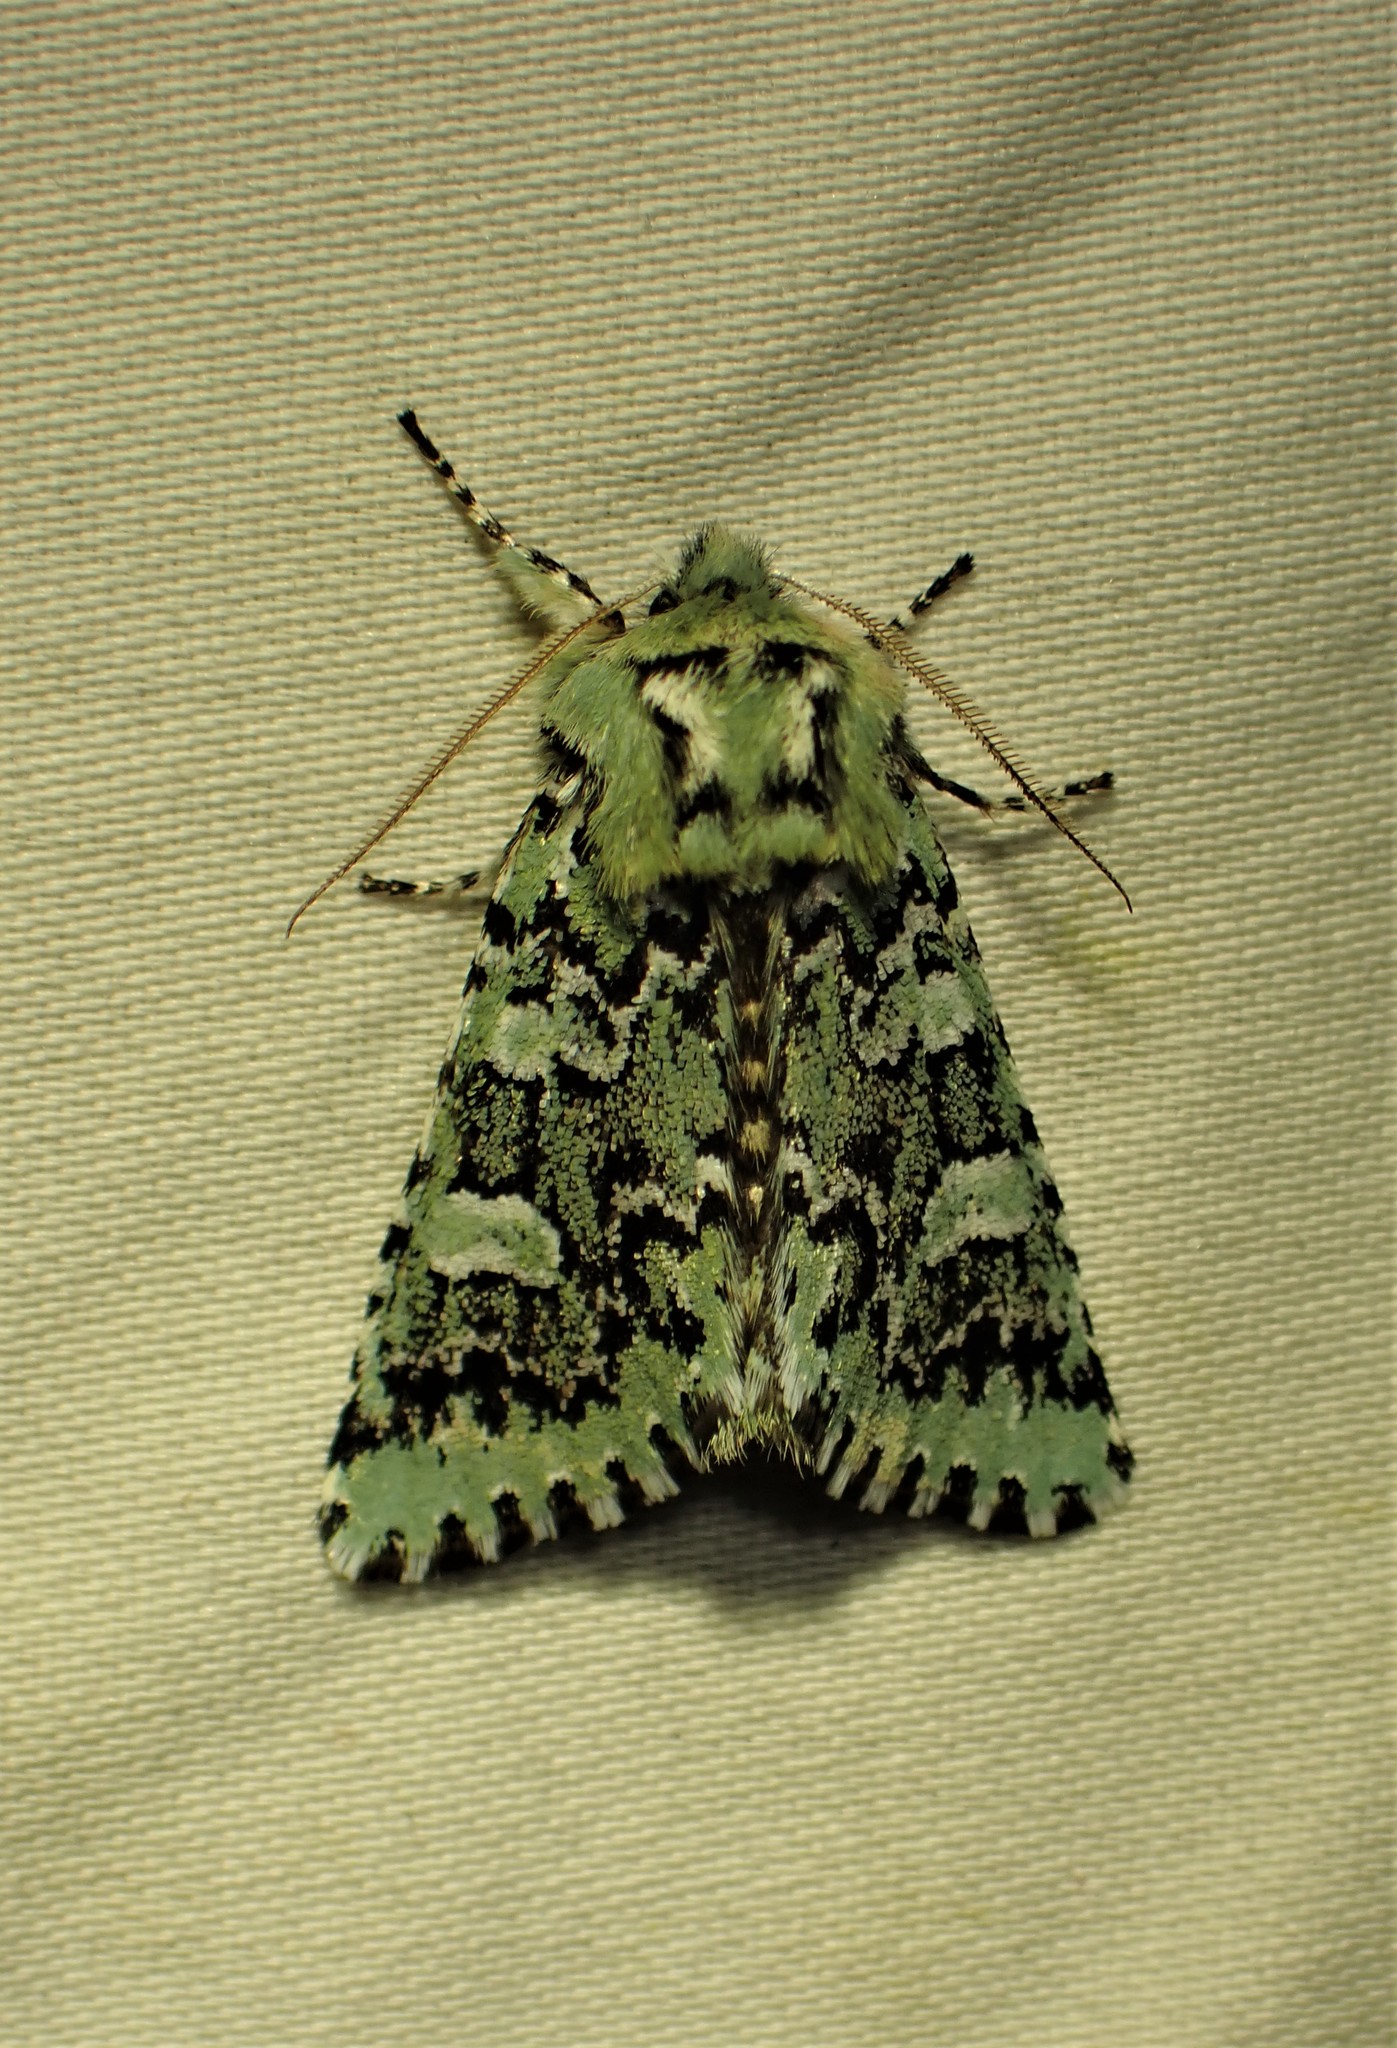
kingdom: Animalia
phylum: Arthropoda
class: Insecta
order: Lepidoptera
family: Noctuidae
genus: Feralia
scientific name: Feralia jocosa
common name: Joker
